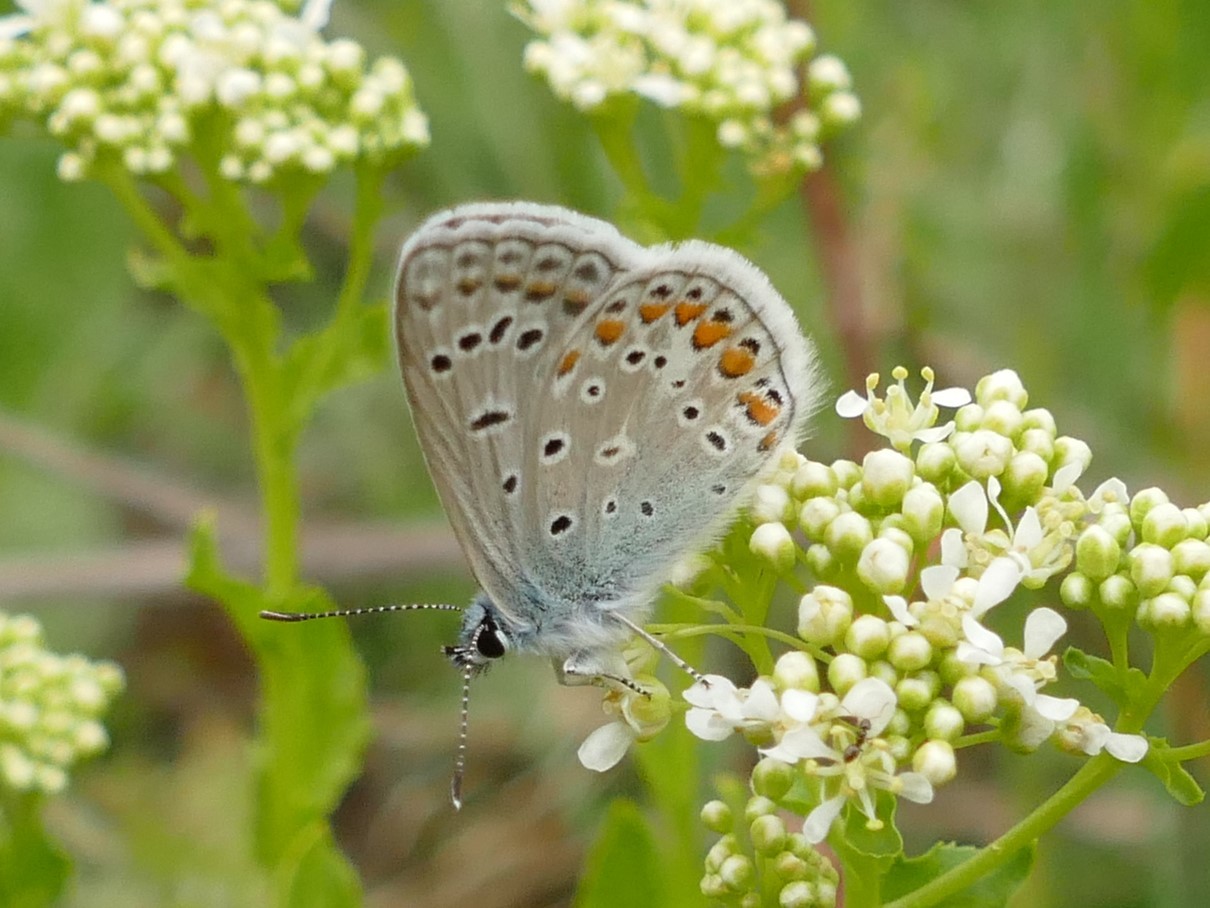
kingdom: Animalia
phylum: Arthropoda
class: Insecta
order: Lepidoptera
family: Lycaenidae
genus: Polyommatus
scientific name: Polyommatus icarus
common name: Common blue
